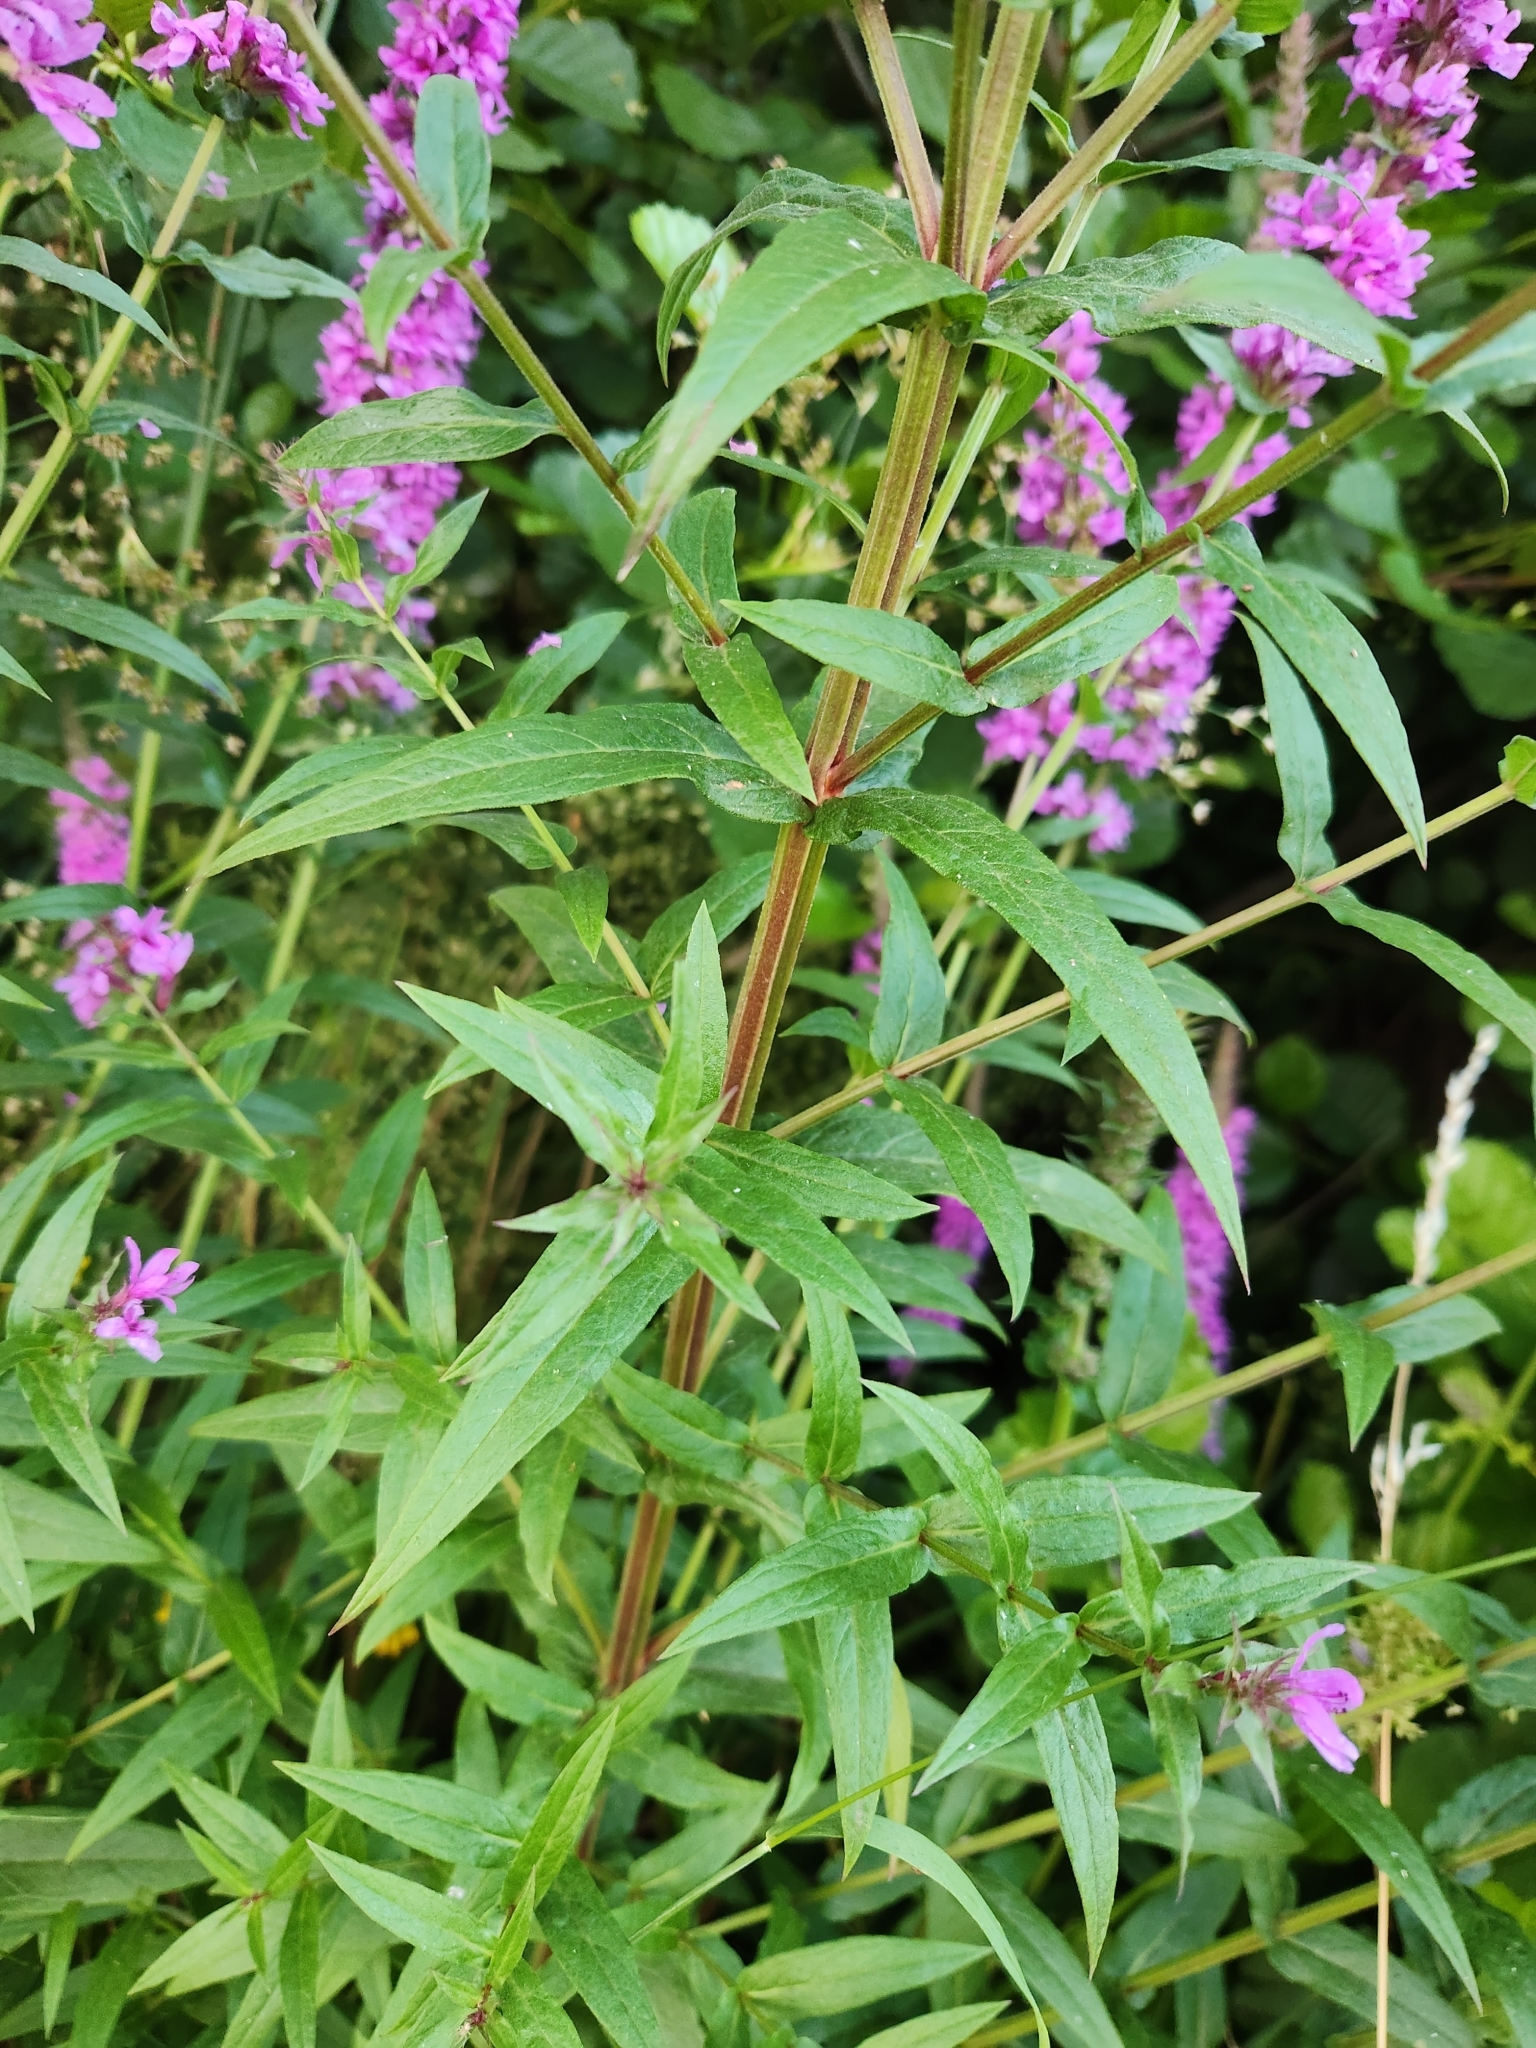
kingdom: Plantae
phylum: Tracheophyta
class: Magnoliopsida
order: Myrtales
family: Lythraceae
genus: Lythrum
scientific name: Lythrum salicaria
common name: Purple loosestrife
